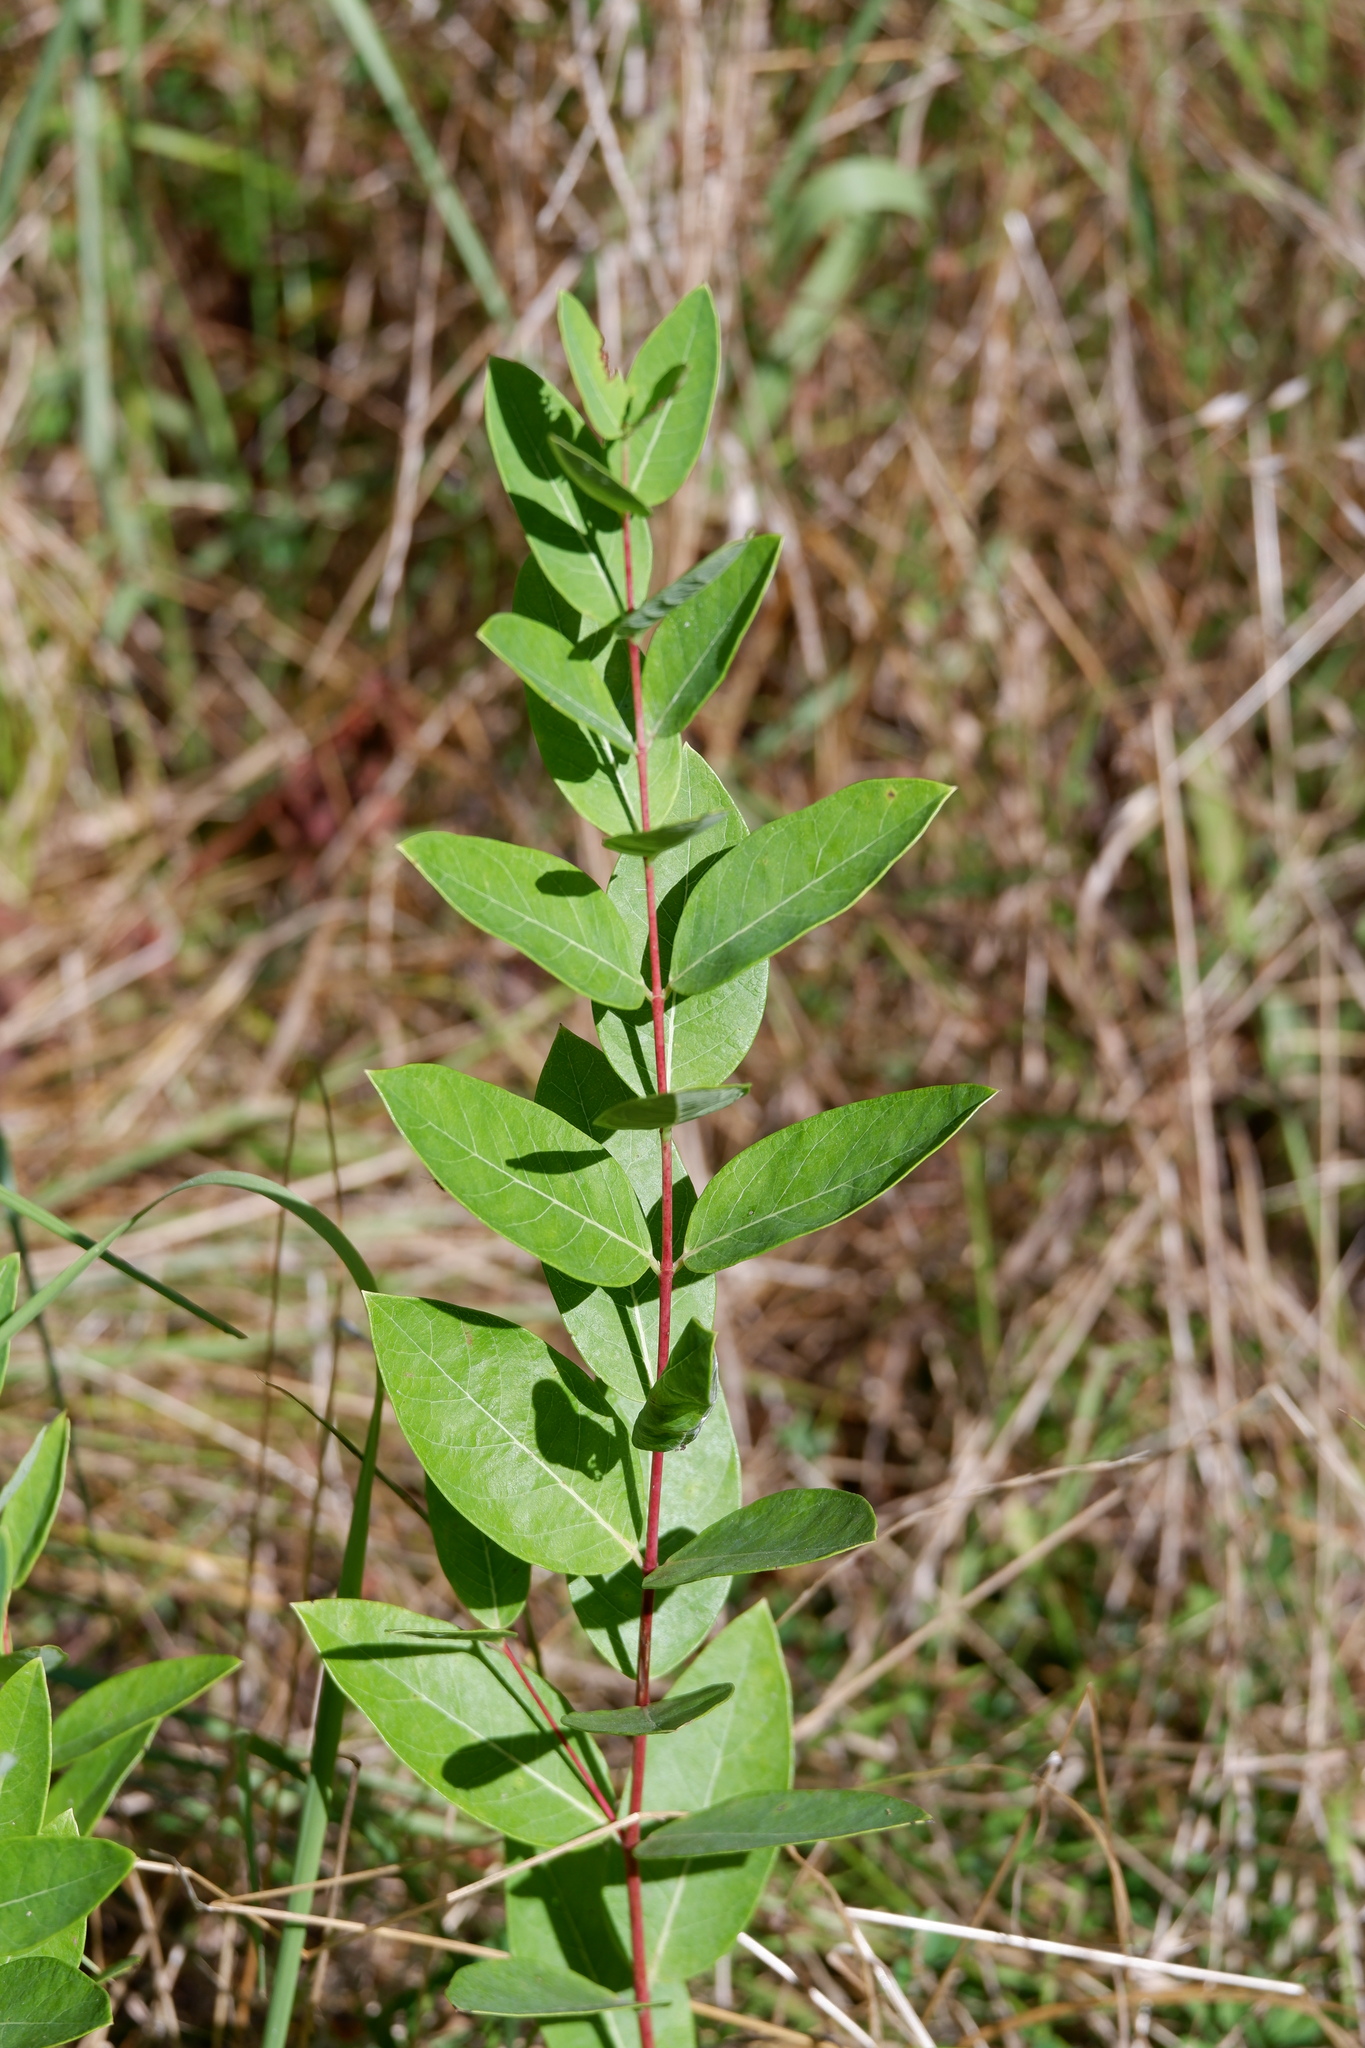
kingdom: Plantae
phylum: Tracheophyta
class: Magnoliopsida
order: Gentianales
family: Apocynaceae
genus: Apocynum
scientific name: Apocynum cannabinum
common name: Hemp dogbane
